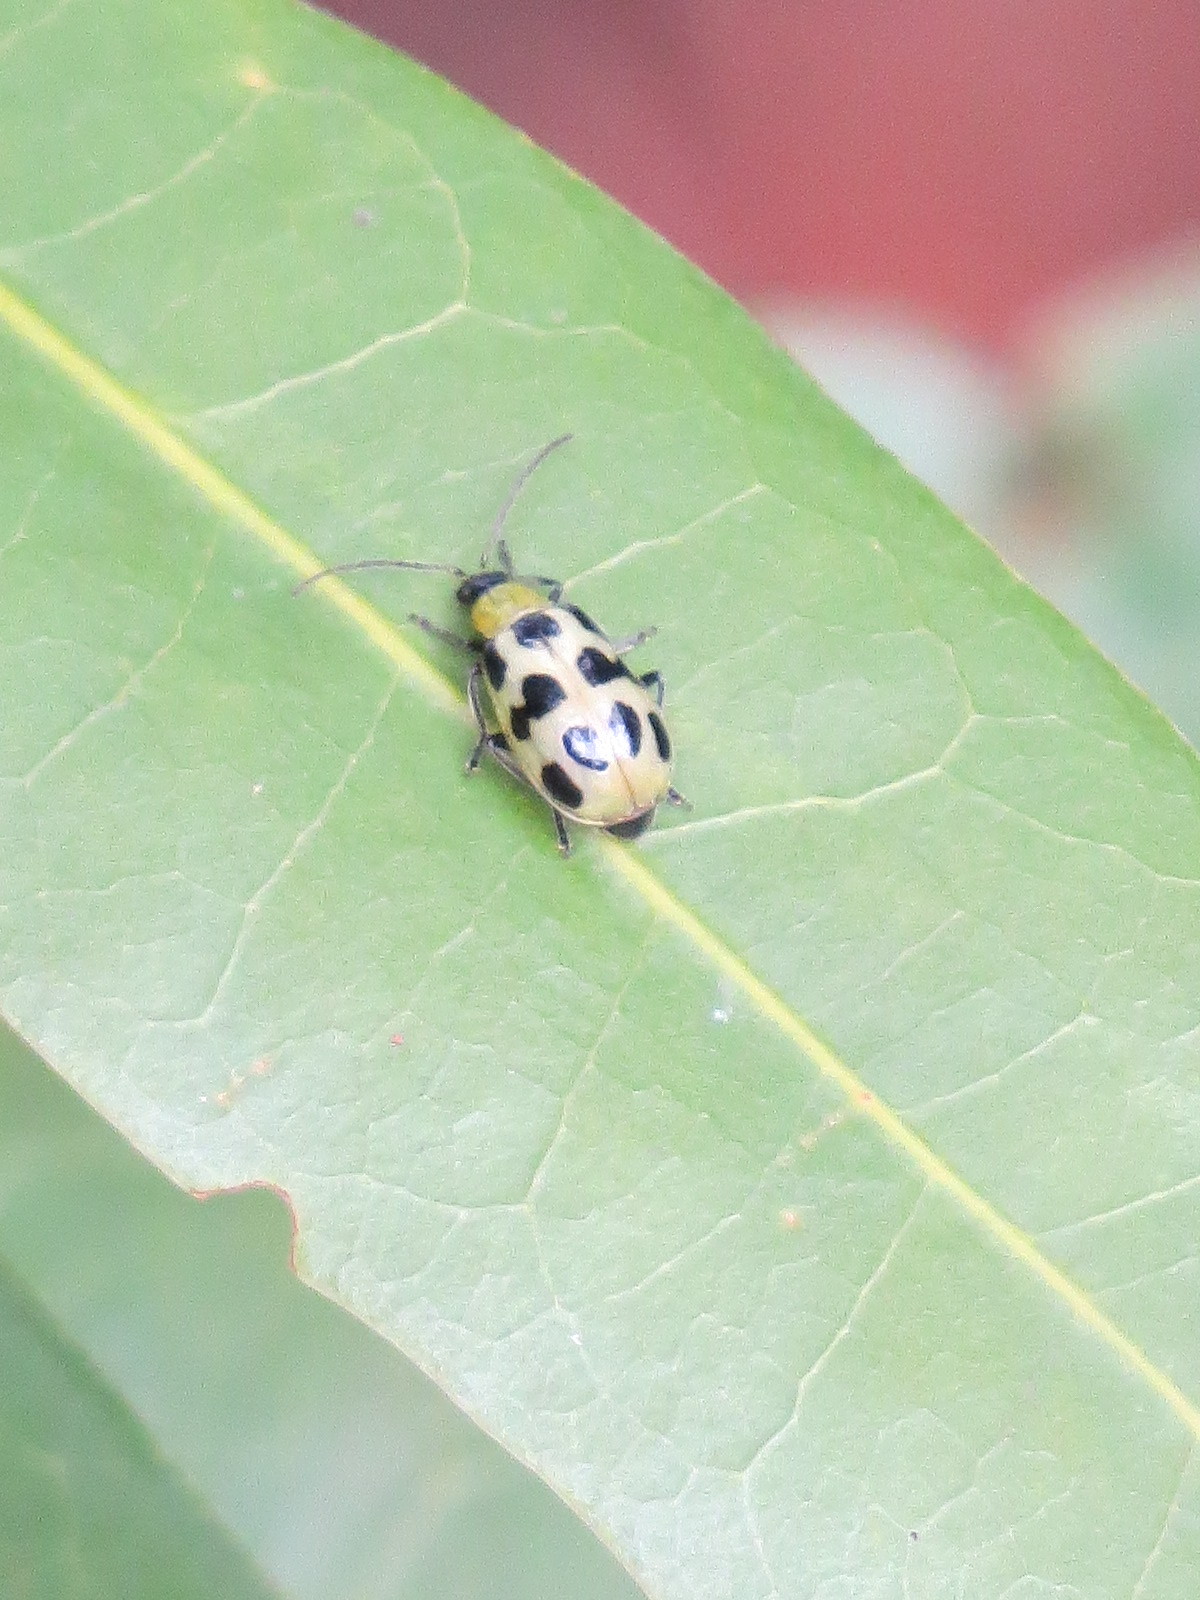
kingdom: Animalia
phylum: Arthropoda
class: Insecta
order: Coleoptera
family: Chrysomelidae
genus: Diabrotica
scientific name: Diabrotica undecimpunctata
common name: Spotted cucumber beetle
